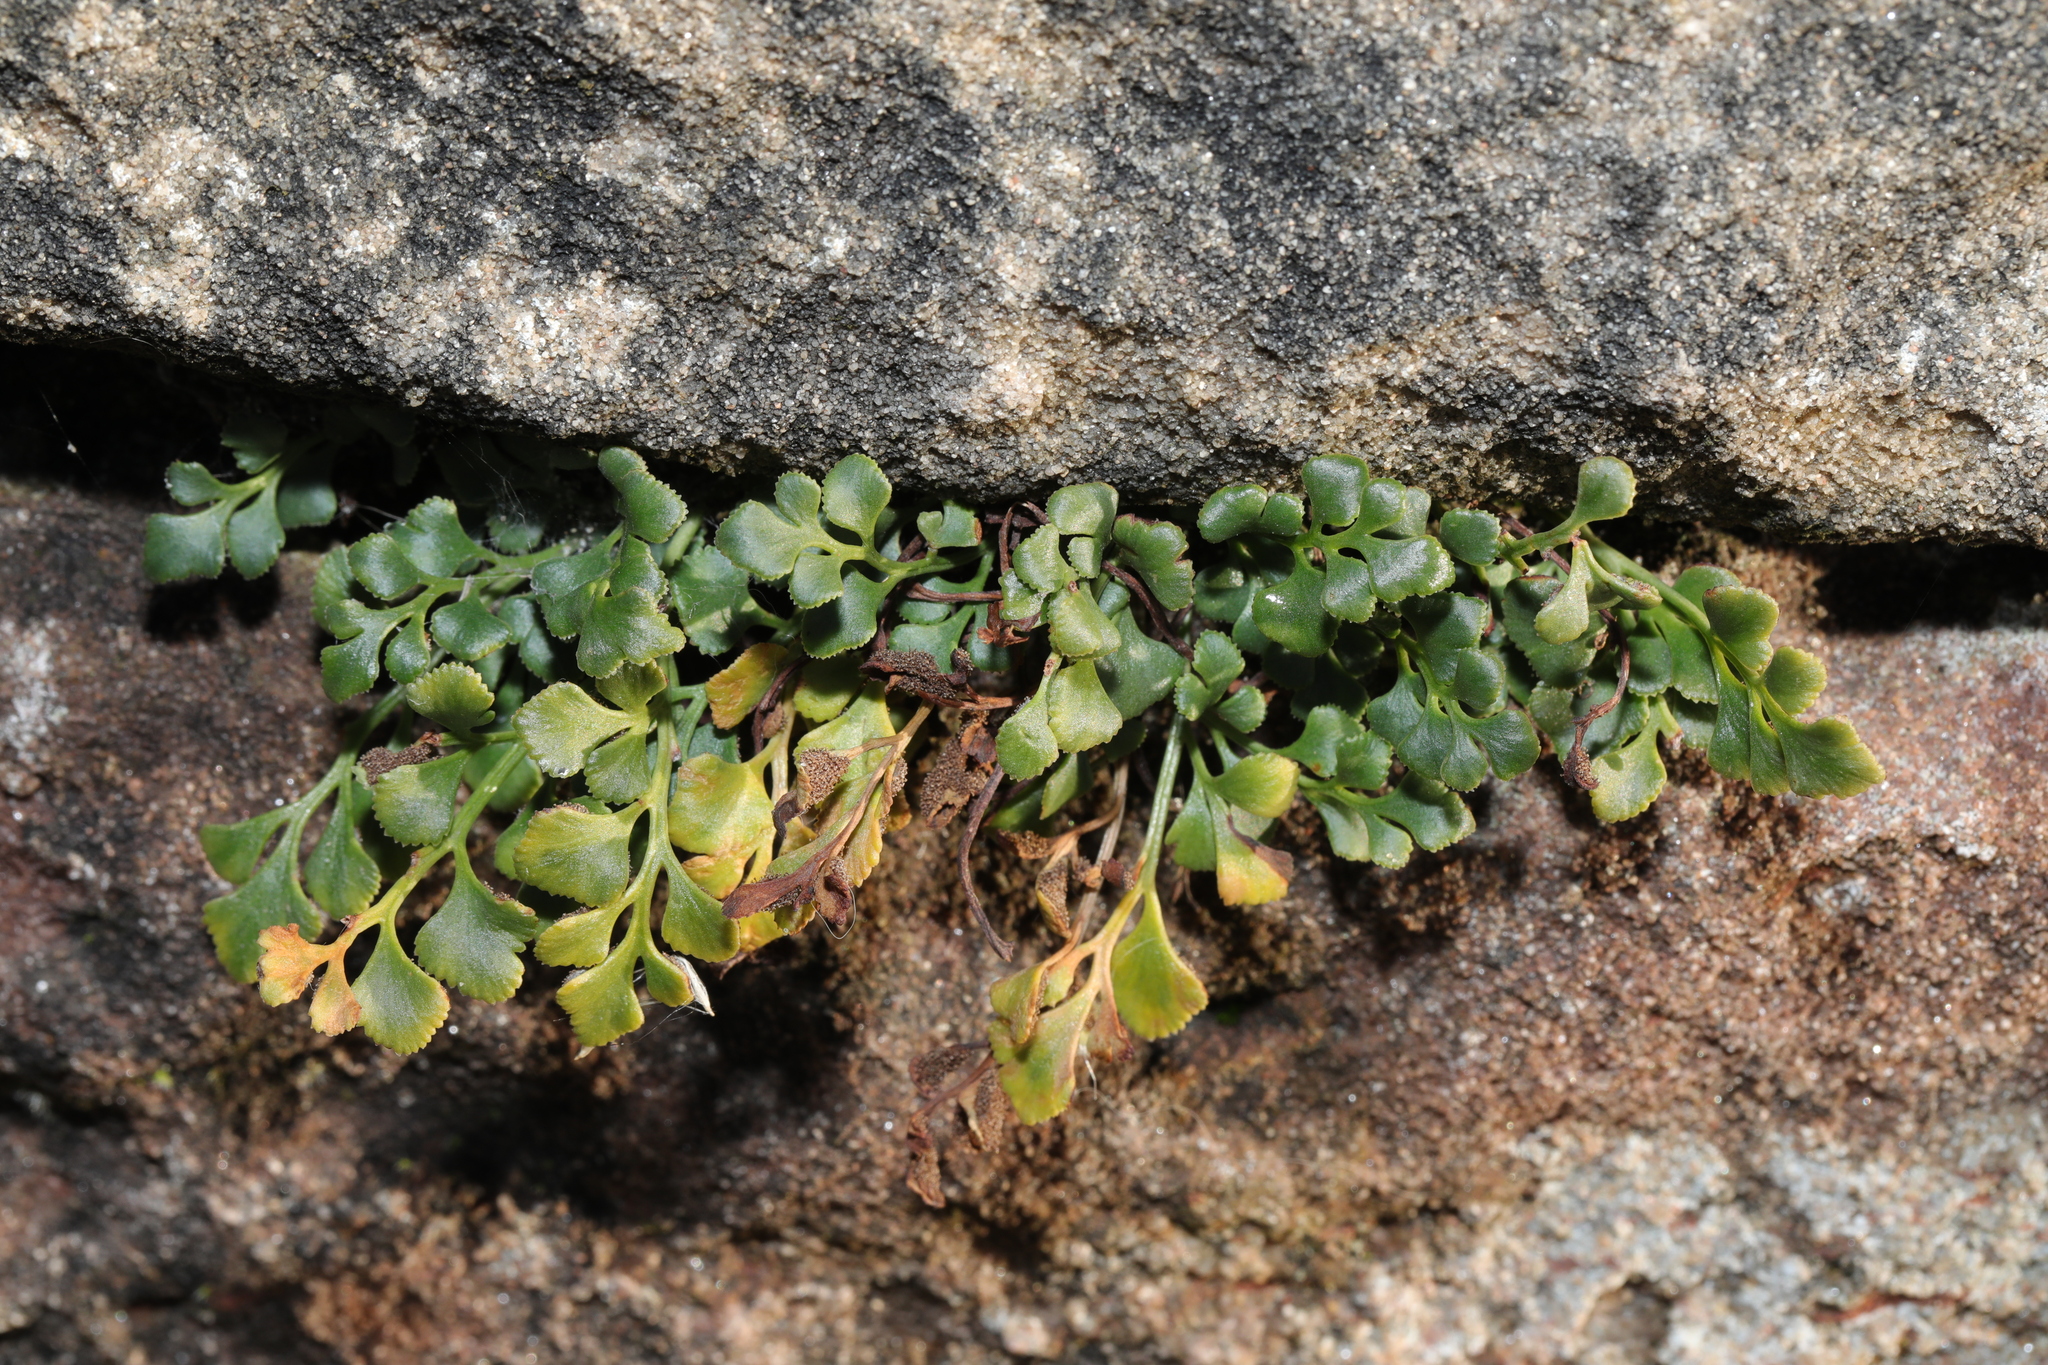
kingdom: Plantae
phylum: Tracheophyta
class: Polypodiopsida
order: Polypodiales
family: Aspleniaceae
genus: Asplenium
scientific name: Asplenium ruta-muraria
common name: Wall-rue
